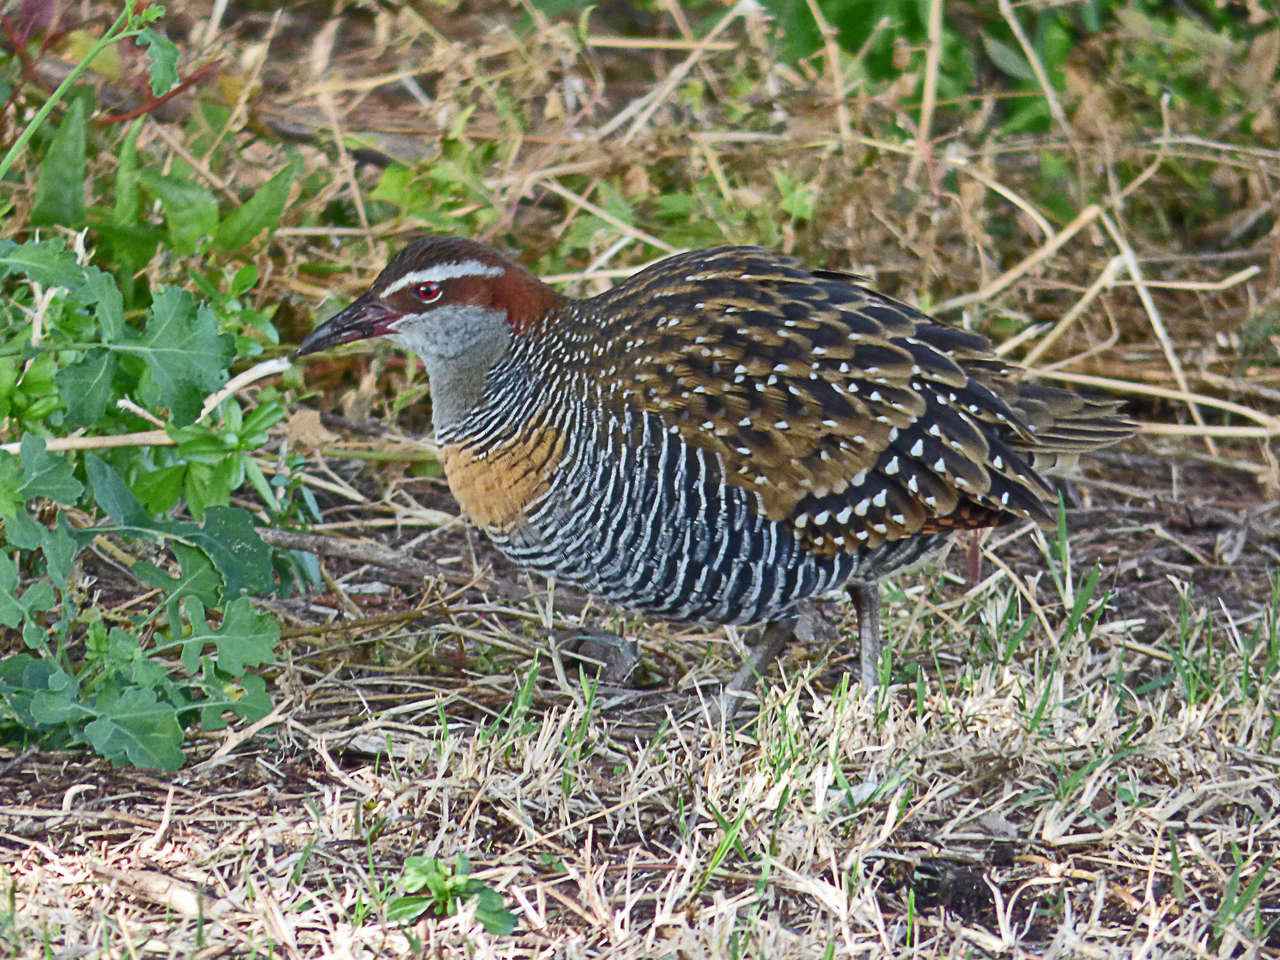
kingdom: Animalia
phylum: Chordata
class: Aves
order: Gruiformes
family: Rallidae
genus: Gallirallus
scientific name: Gallirallus philippensis
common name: Buff-banded rail
